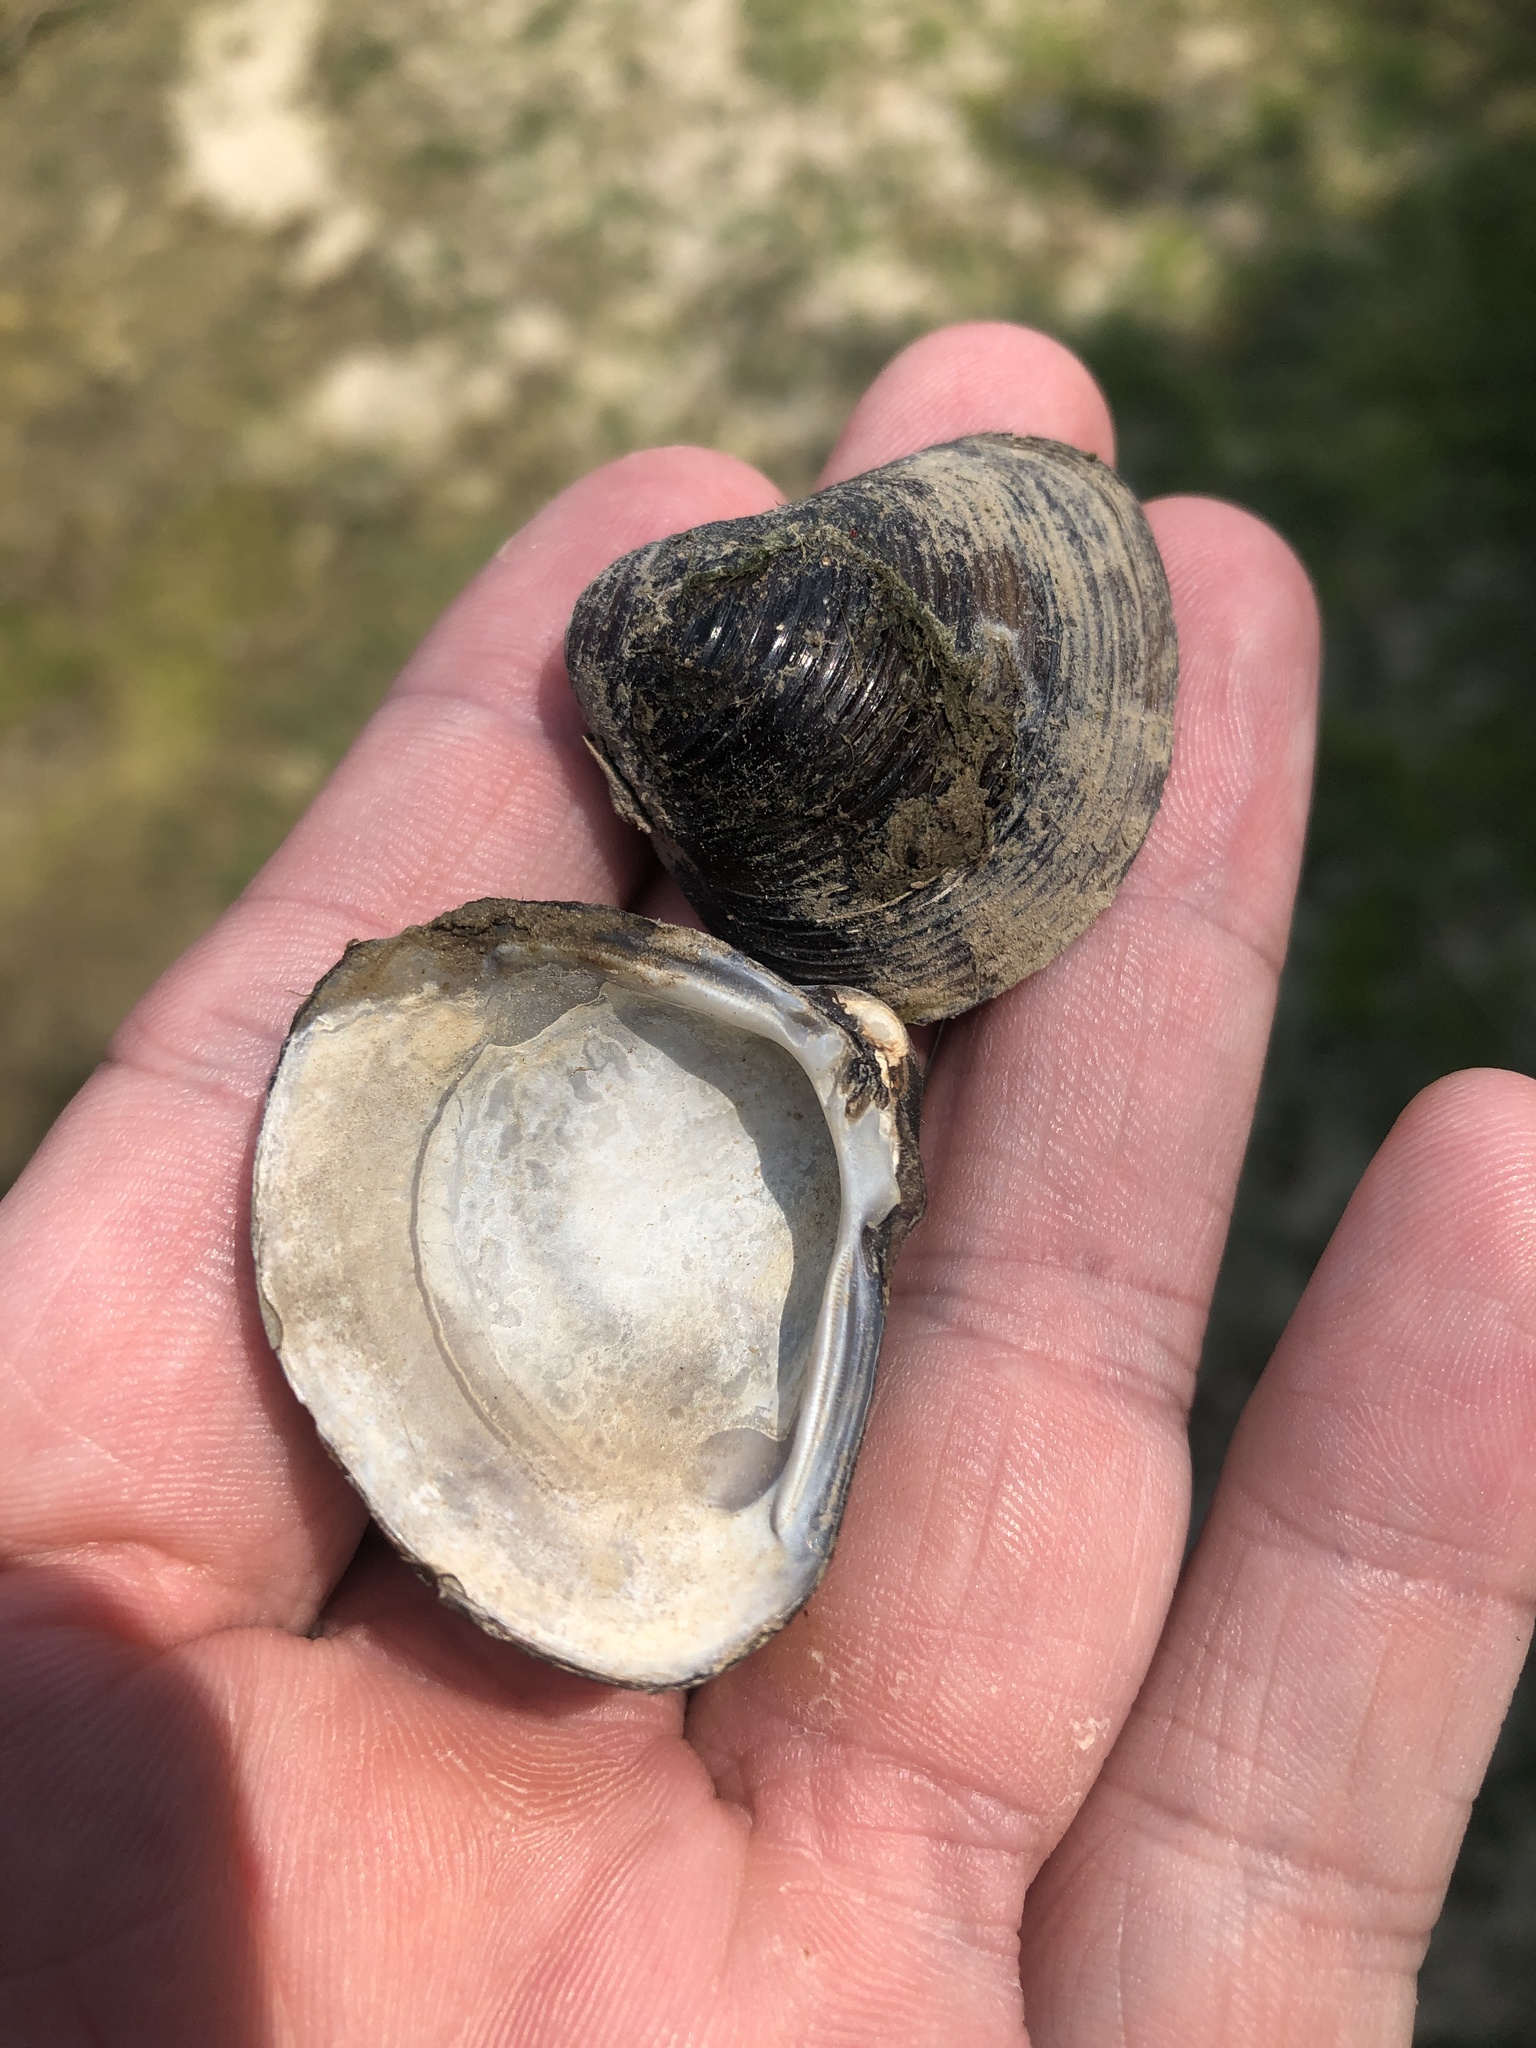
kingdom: Animalia
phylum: Mollusca
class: Bivalvia
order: Venerida
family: Cyrenidae
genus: Corbicula
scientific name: Corbicula fluminea
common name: Asian clam
